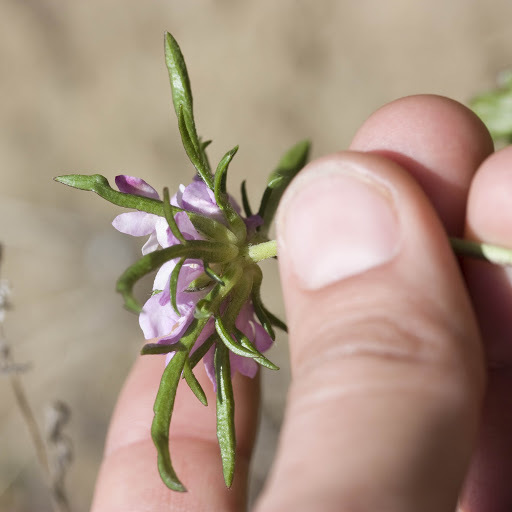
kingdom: Plantae
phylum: Tracheophyta
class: Magnoliopsida
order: Dipsacales
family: Caprifoliaceae
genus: Sixalix
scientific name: Sixalix atropurpurea
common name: Sweet scabious
